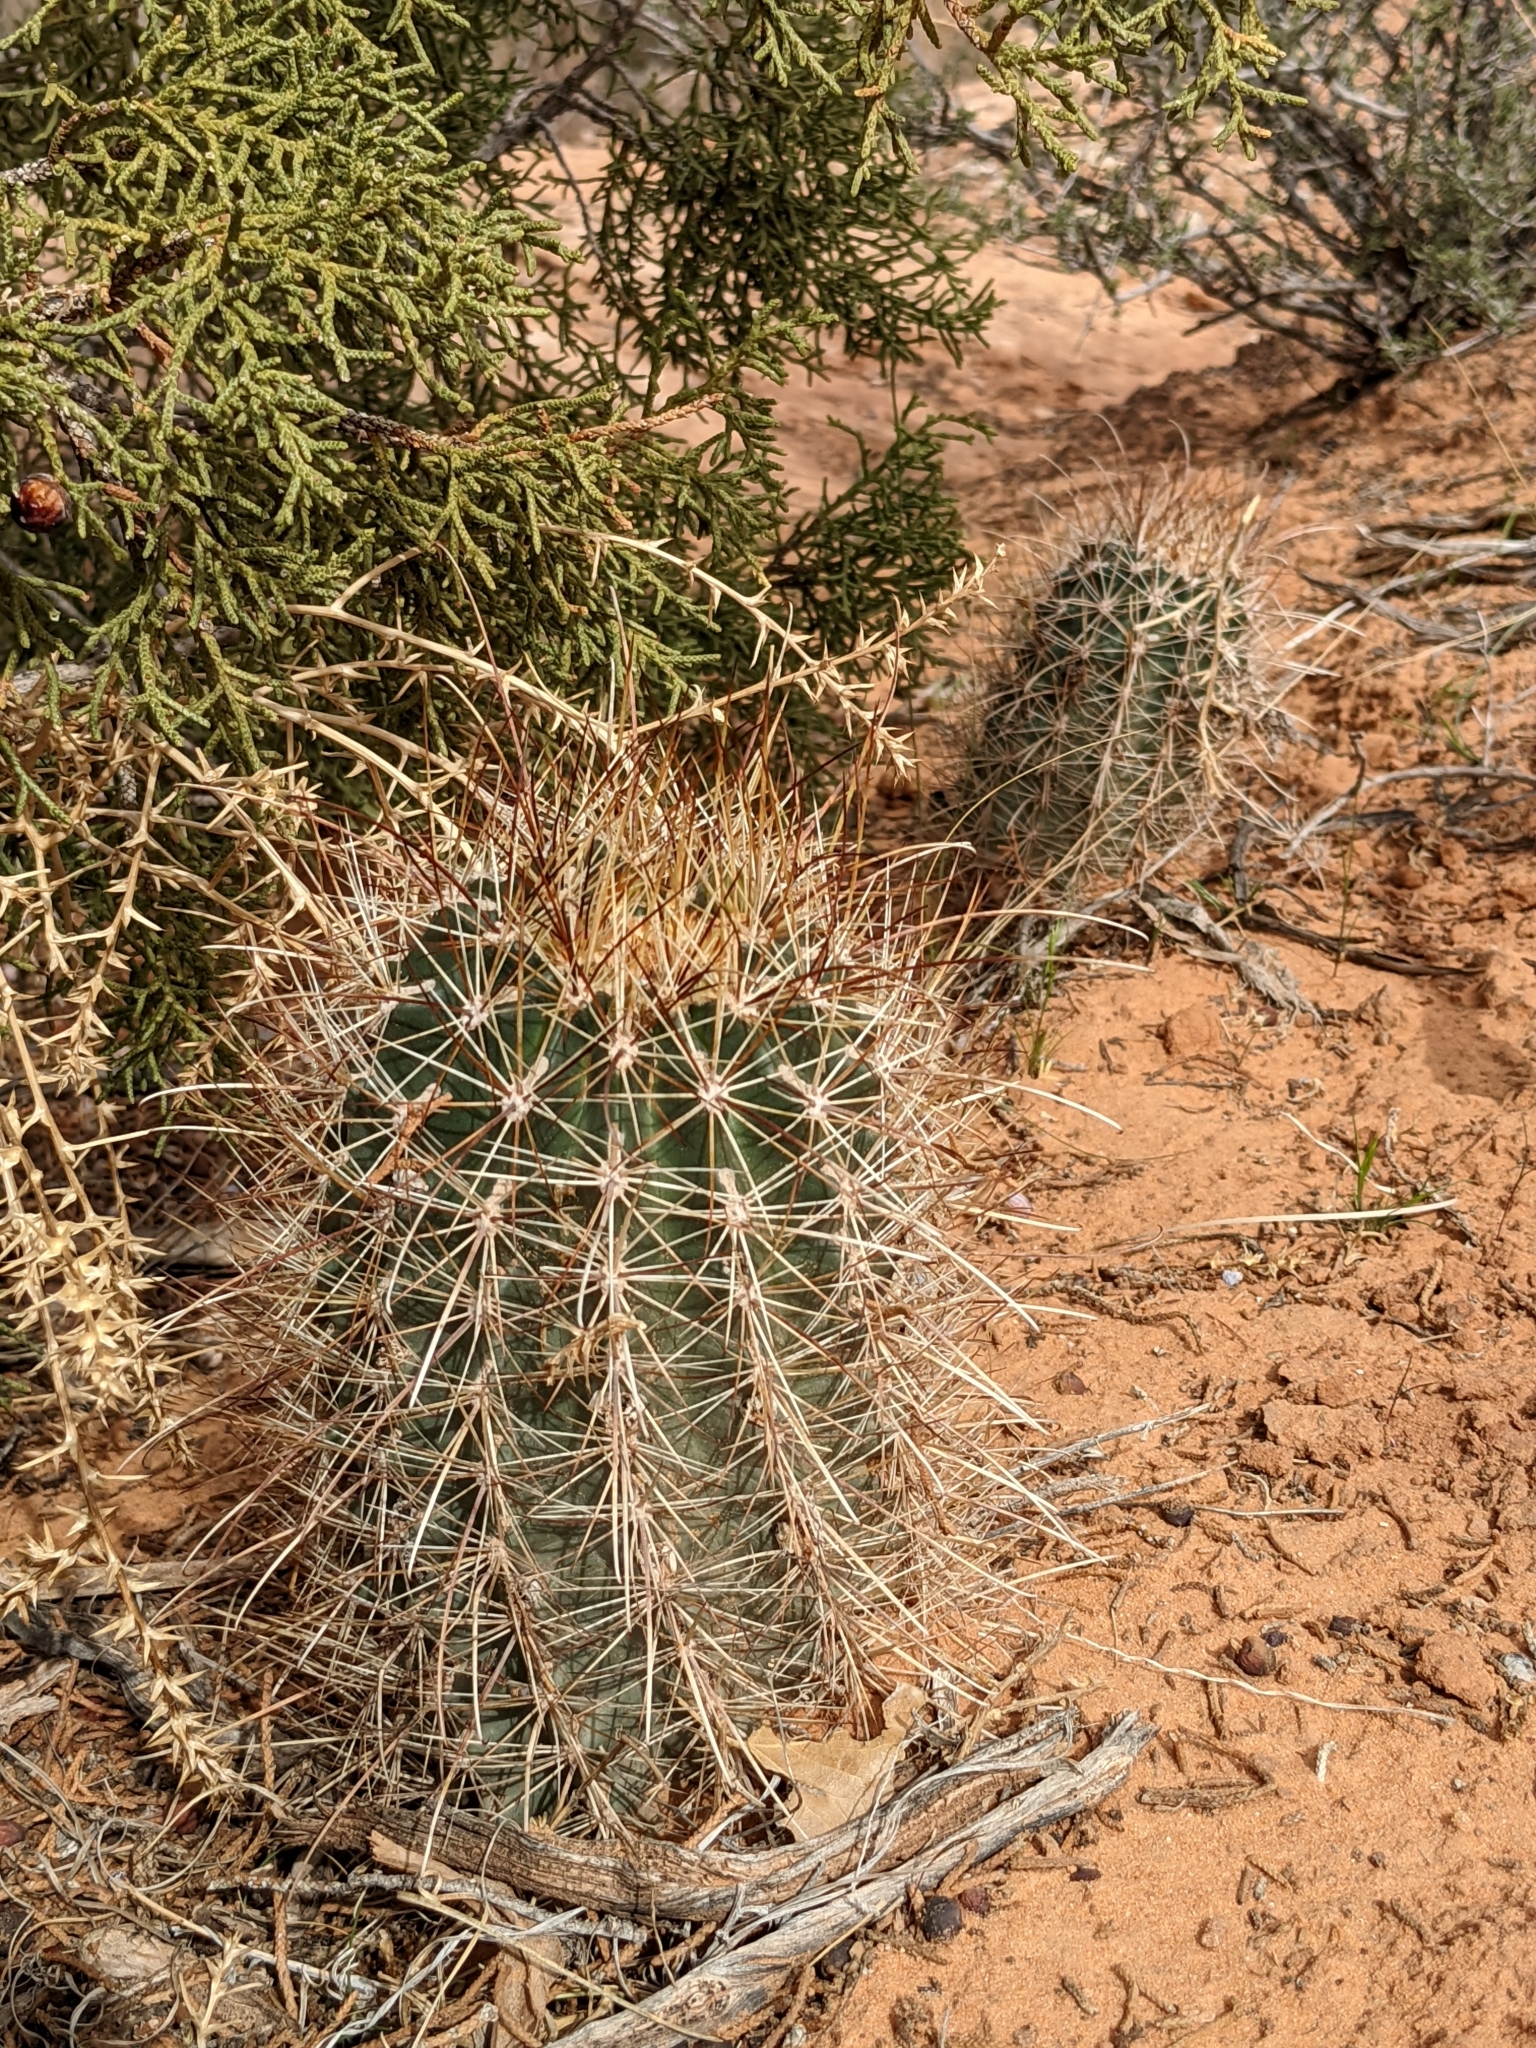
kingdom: Plantae
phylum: Tracheophyta
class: Magnoliopsida
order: Caryophyllales
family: Cactaceae
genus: Sclerocactus
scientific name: Sclerocactus parviflorus
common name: Small-flower fishhook cactus
